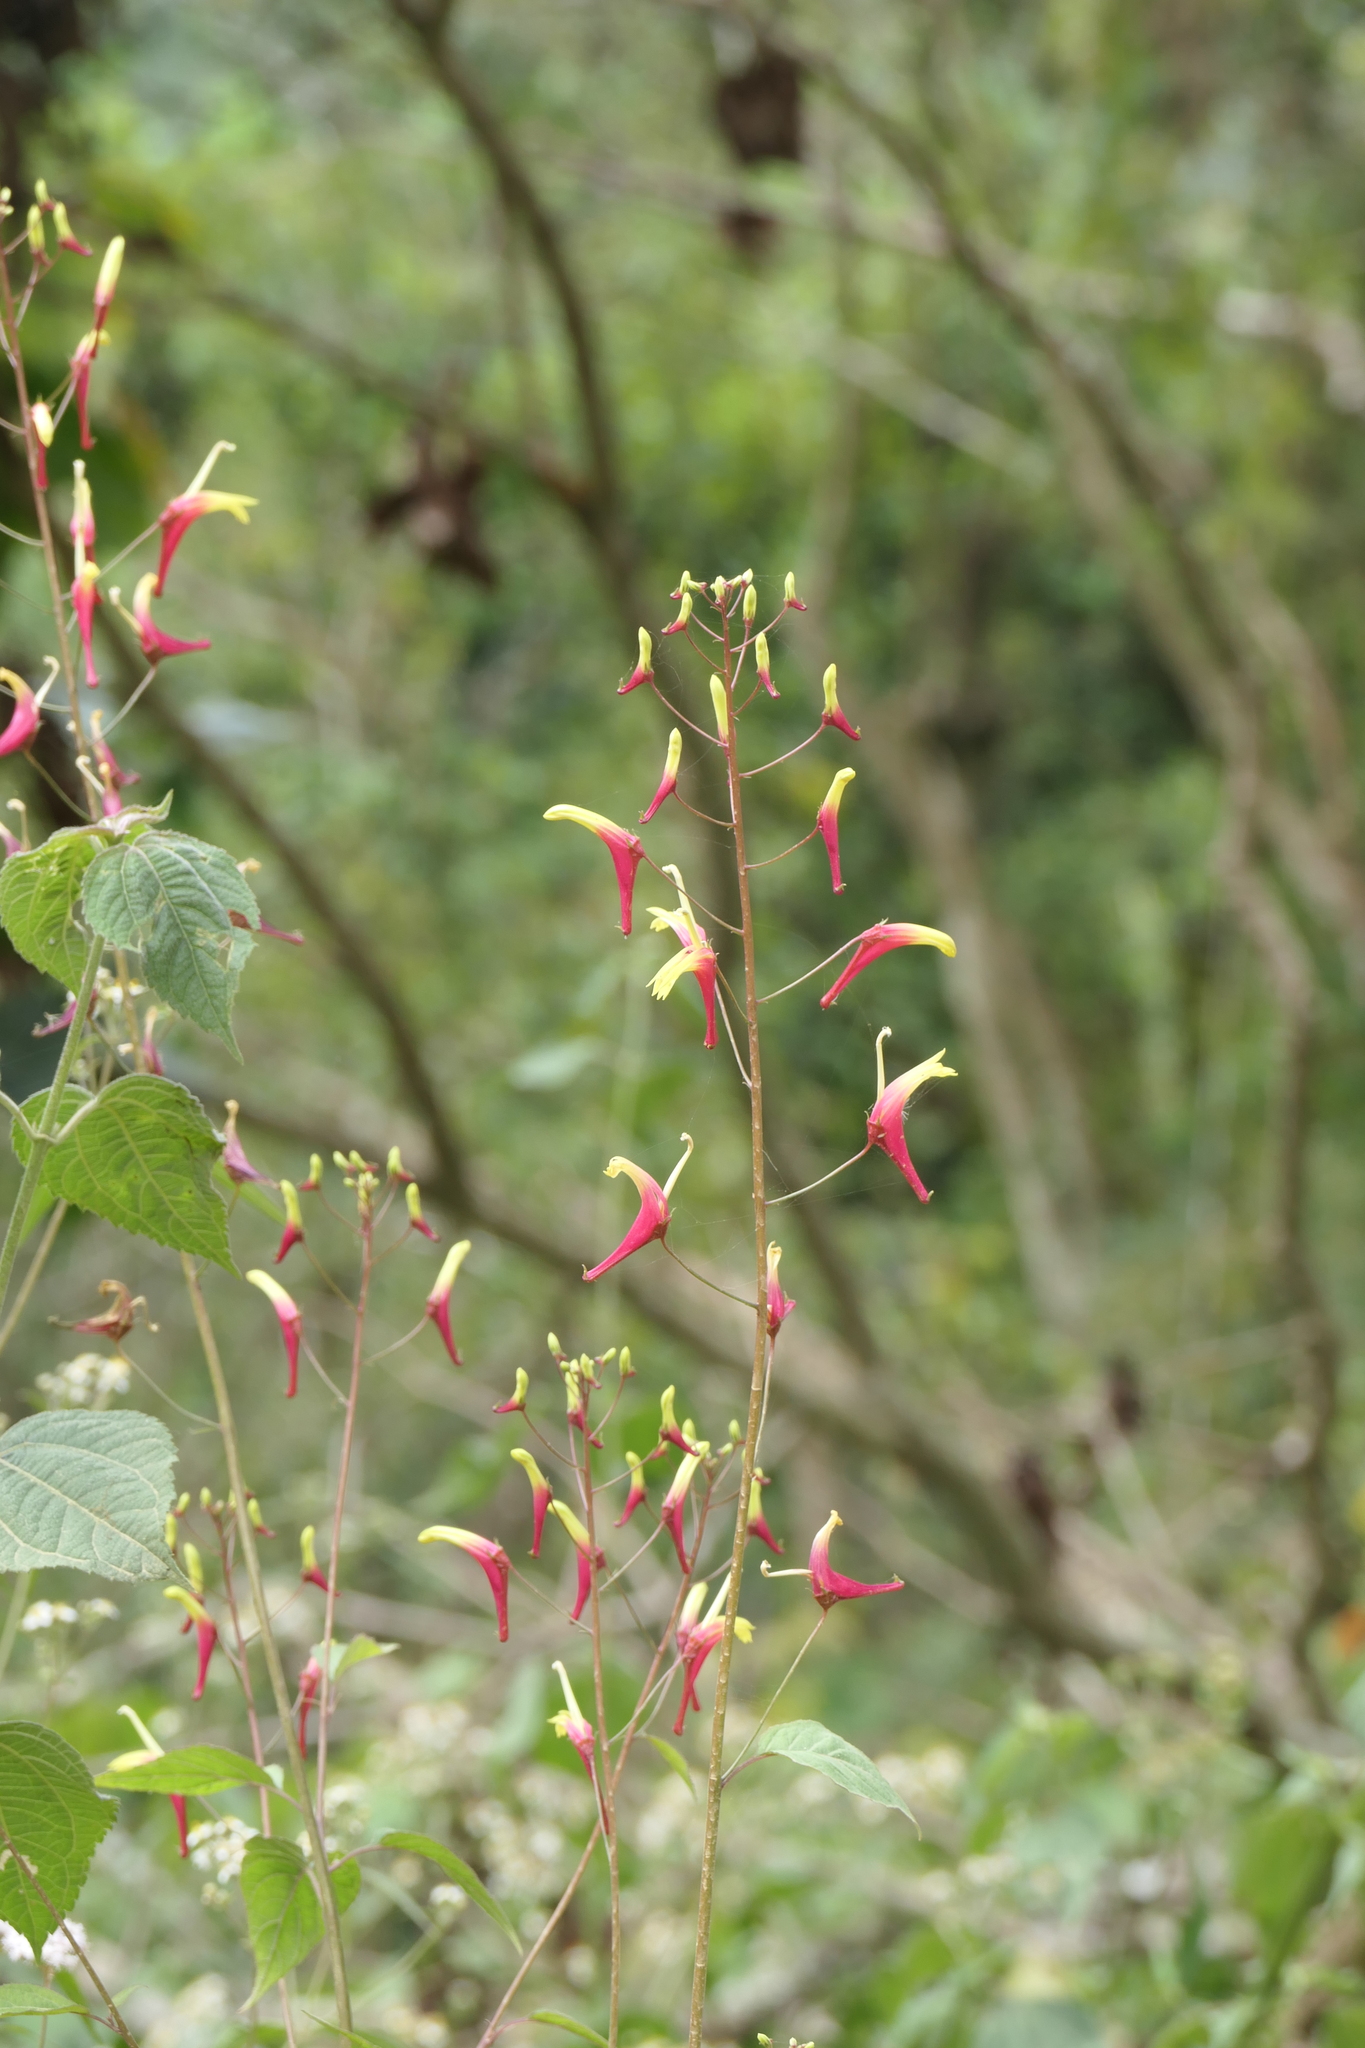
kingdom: Plantae
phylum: Tracheophyta
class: Magnoliopsida
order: Asterales
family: Campanulaceae
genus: Heterotoma
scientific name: Heterotoma lobelioides
